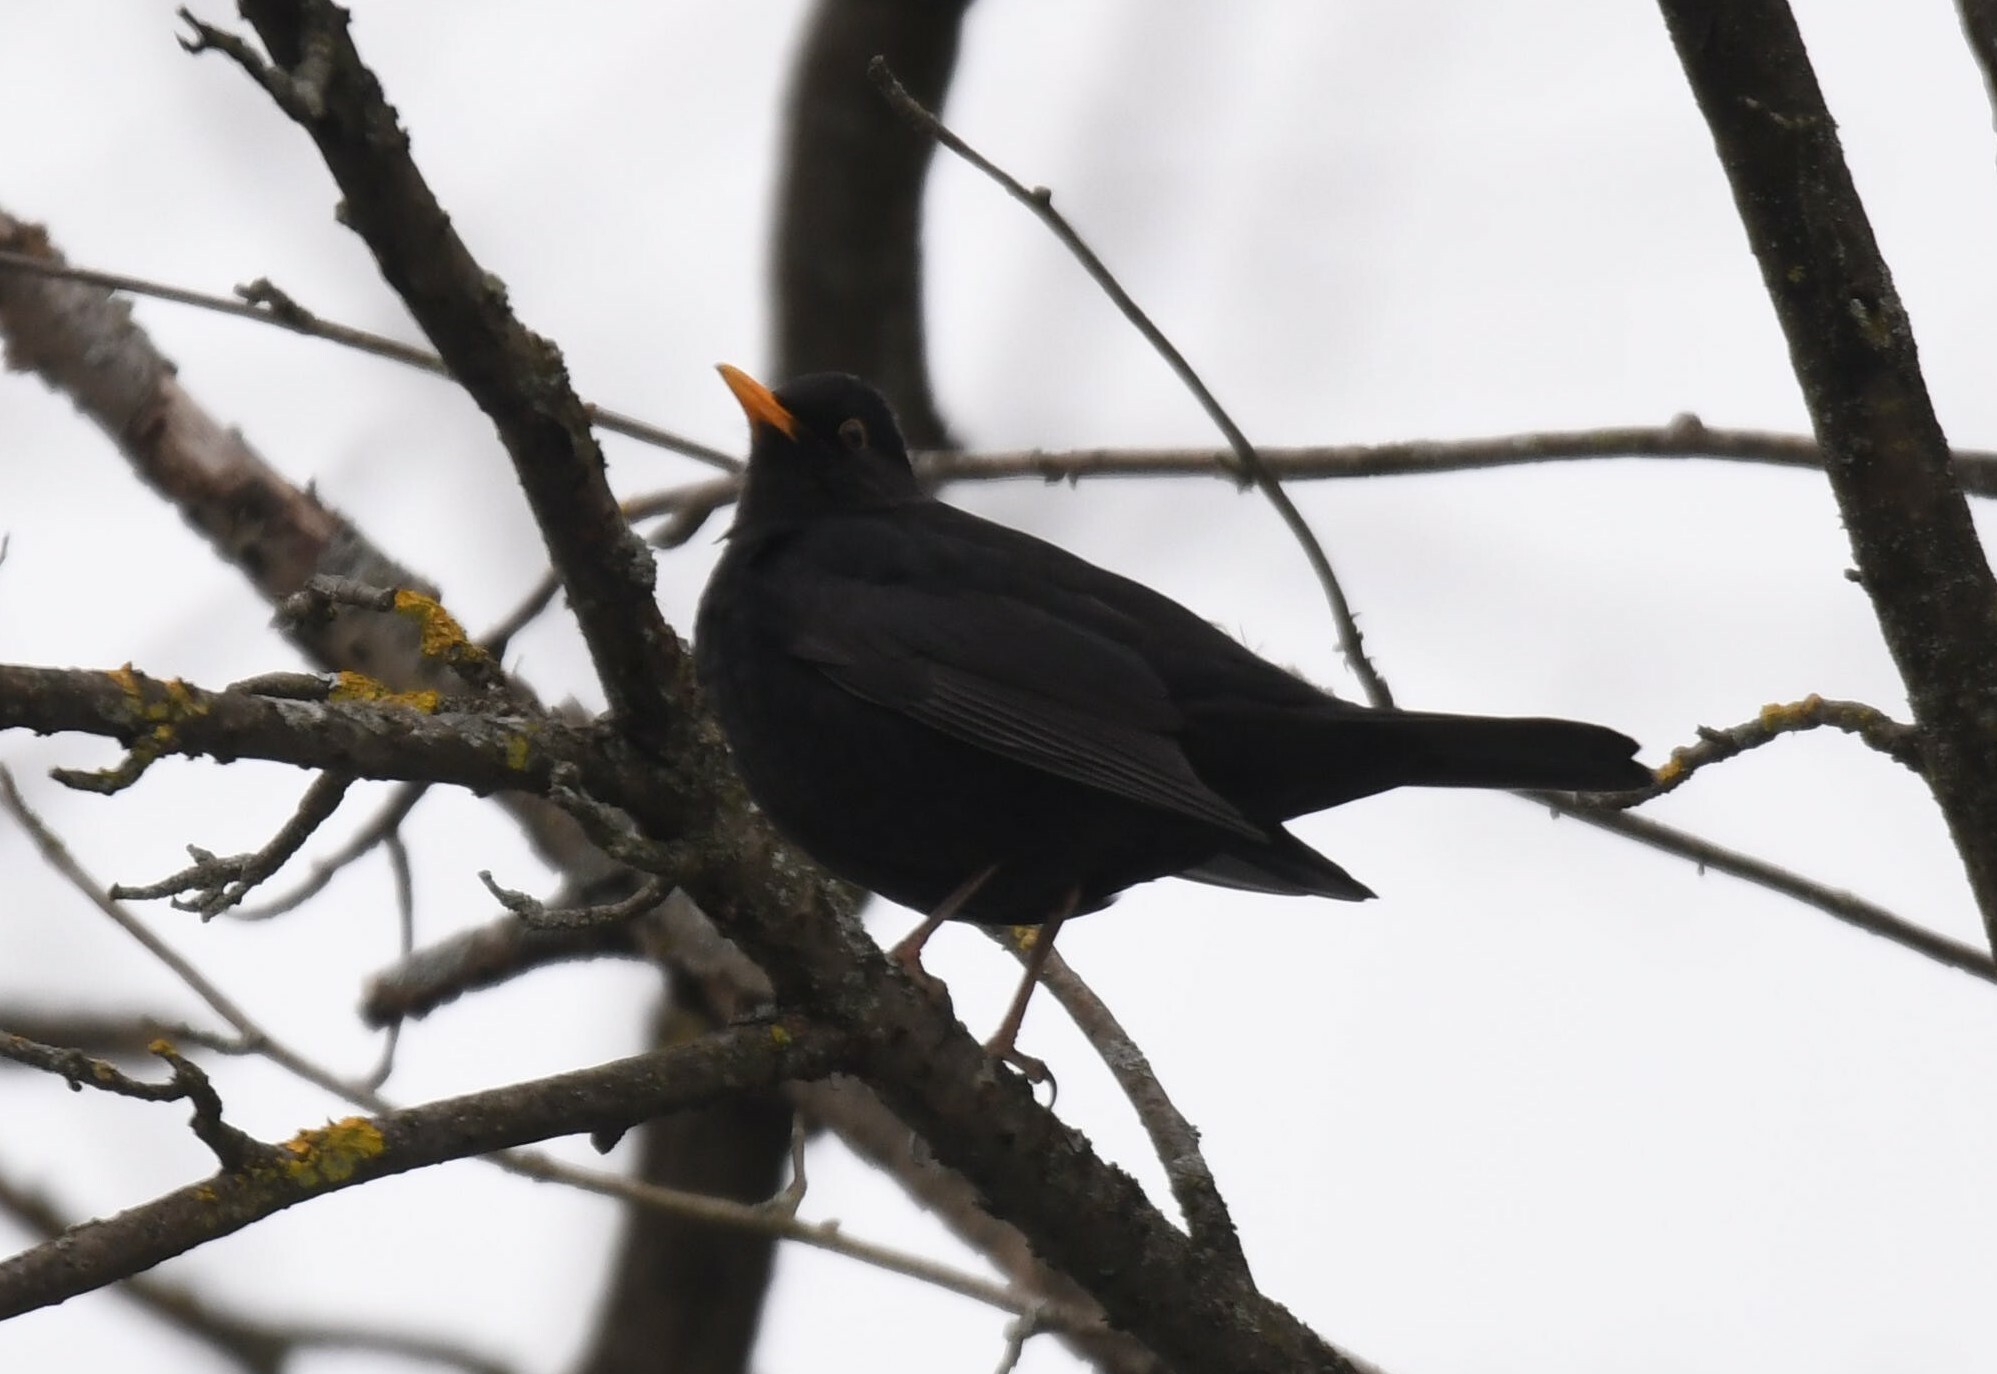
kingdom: Animalia
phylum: Chordata
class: Aves
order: Passeriformes
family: Turdidae
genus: Turdus
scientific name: Turdus merula
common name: Common blackbird
